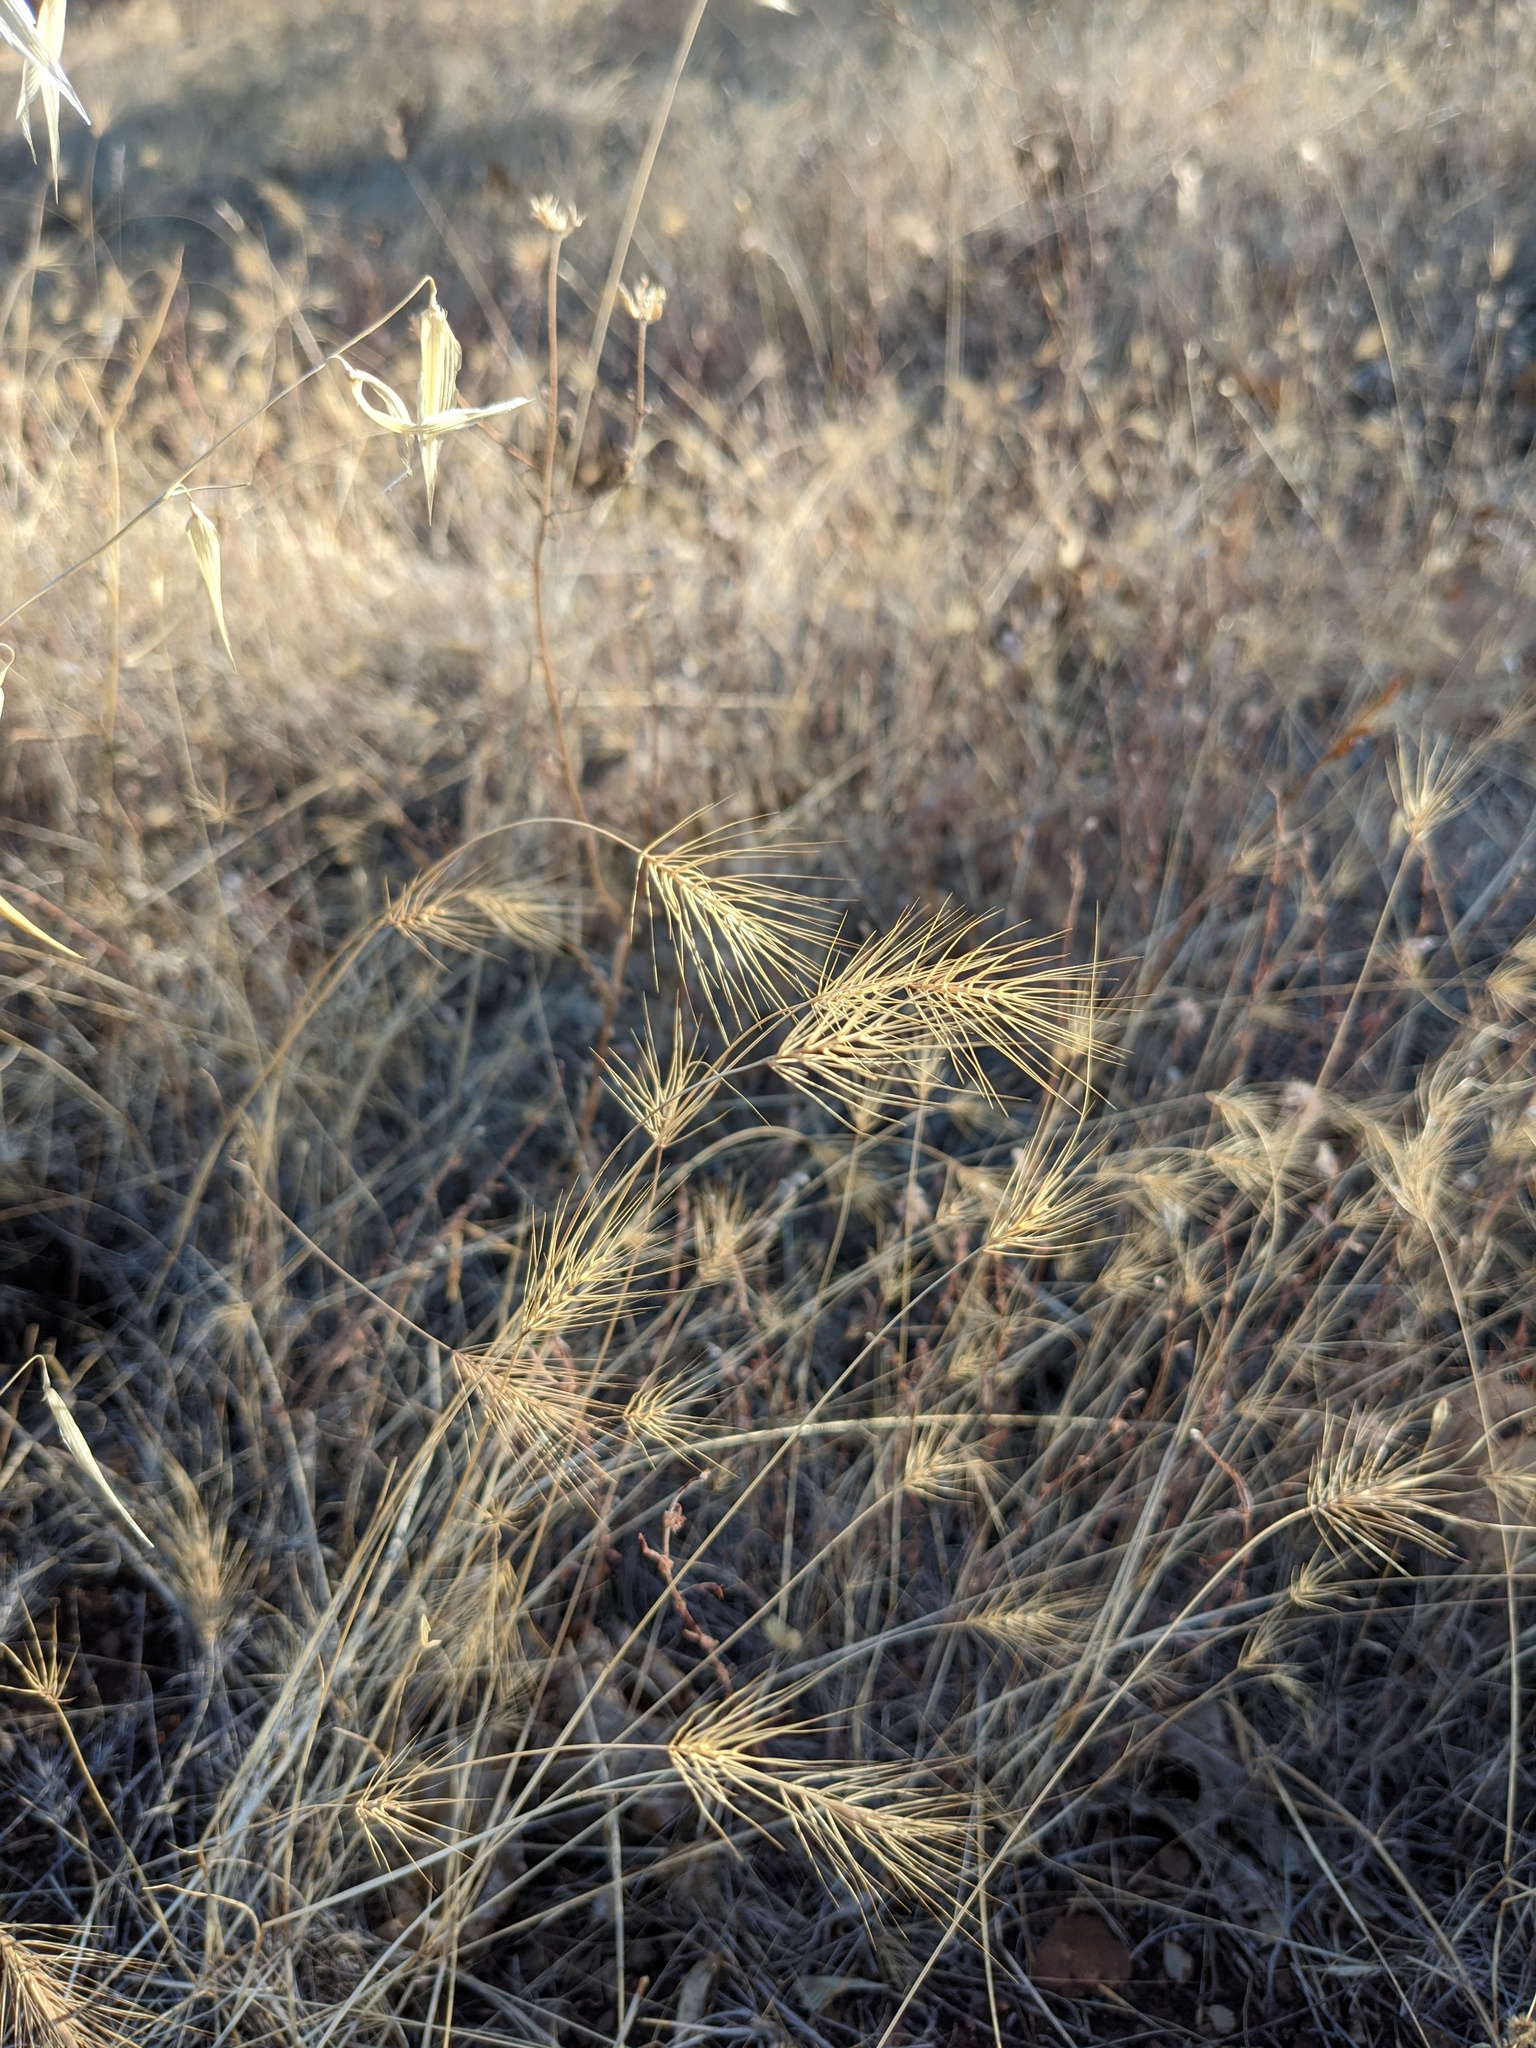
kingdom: Plantae
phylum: Tracheophyta
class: Liliopsida
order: Poales
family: Poaceae
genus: Taeniatherum
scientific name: Taeniatherum caput-medusae
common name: Medusahead
